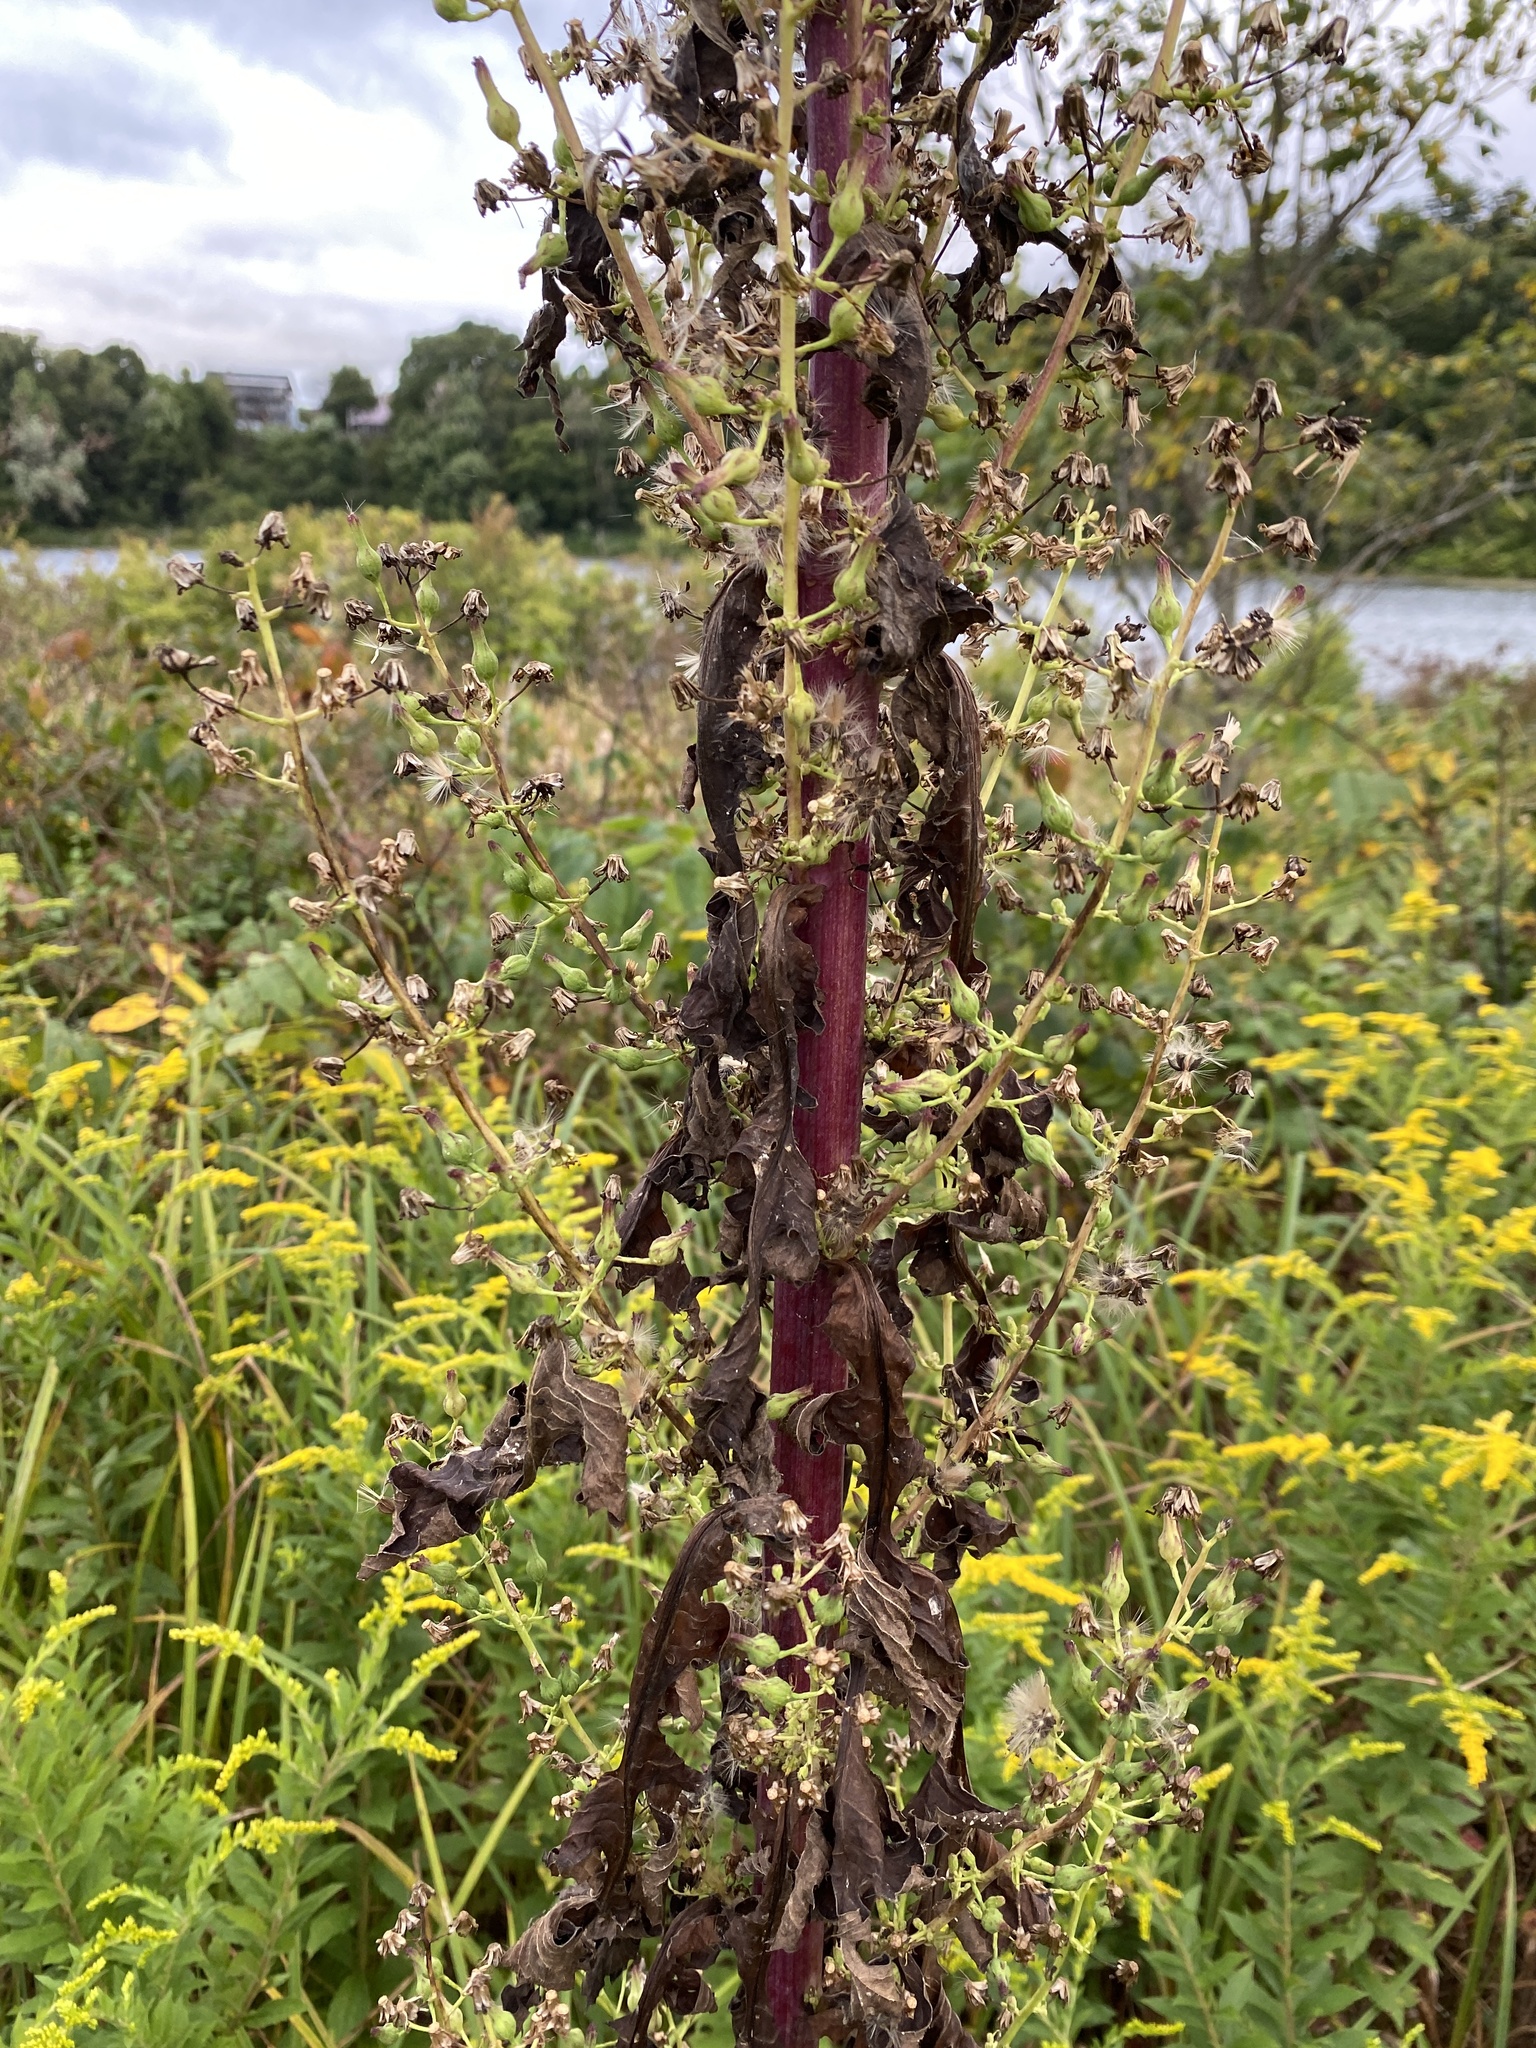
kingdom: Plantae
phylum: Tracheophyta
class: Magnoliopsida
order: Asterales
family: Asteraceae
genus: Lactuca
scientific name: Lactuca biennis
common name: Blue wood lettuce
